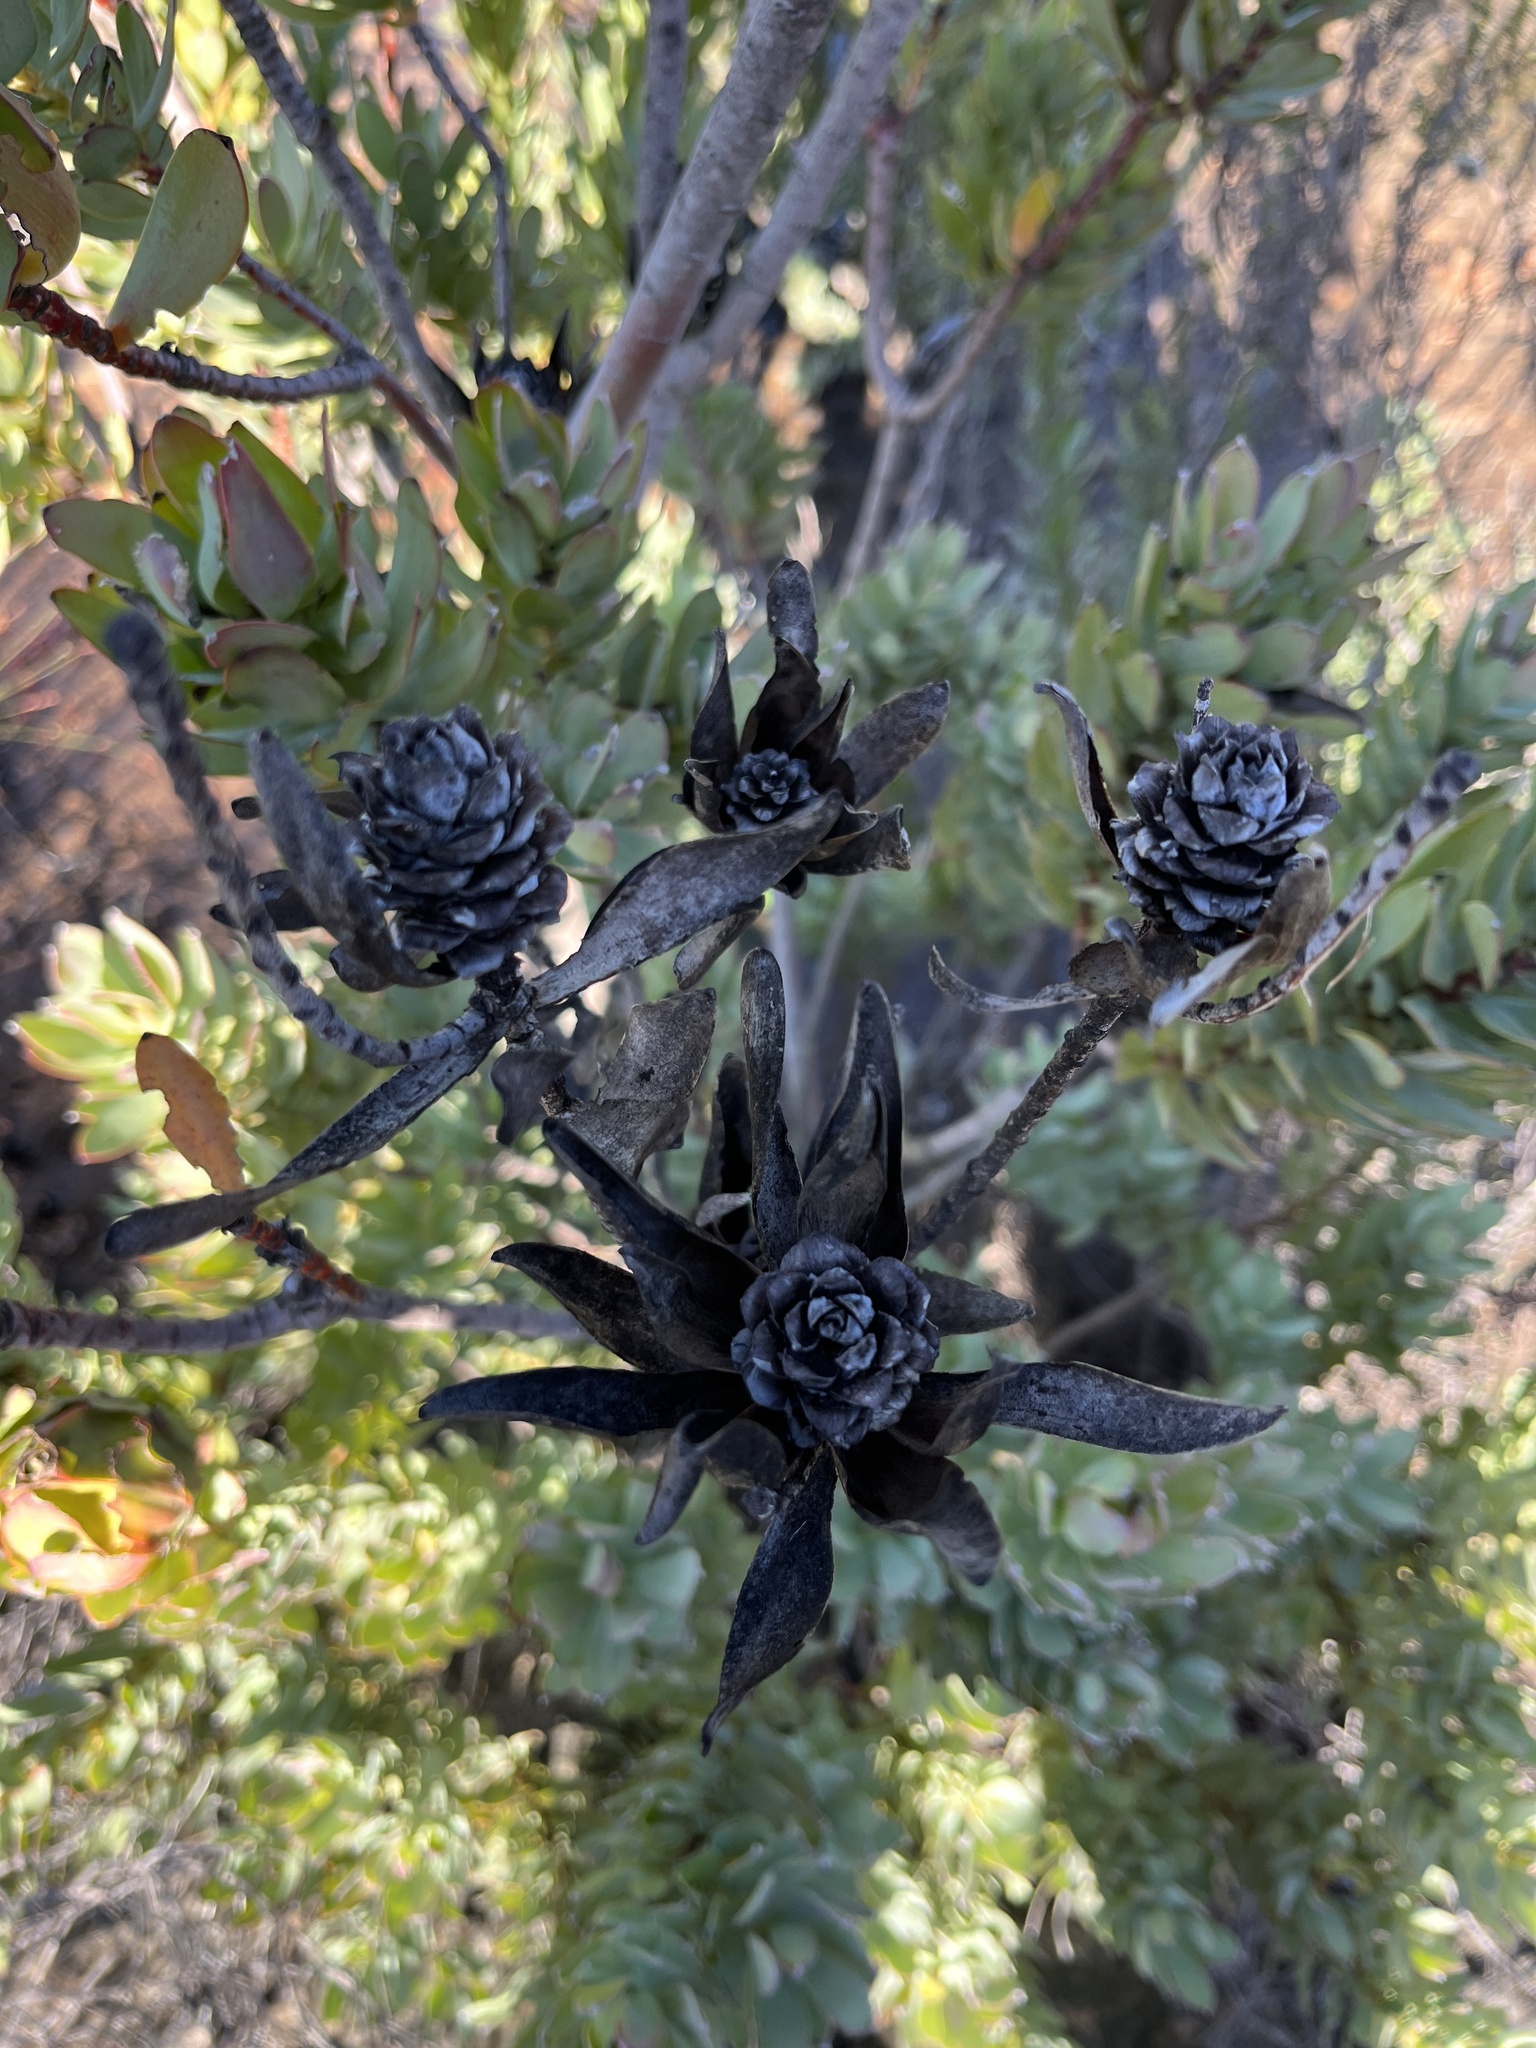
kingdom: Plantae
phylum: Tracheophyta
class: Magnoliopsida
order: Proteales
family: Proteaceae
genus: Leucadendron
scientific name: Leucadendron procerum
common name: Ivory conebush
